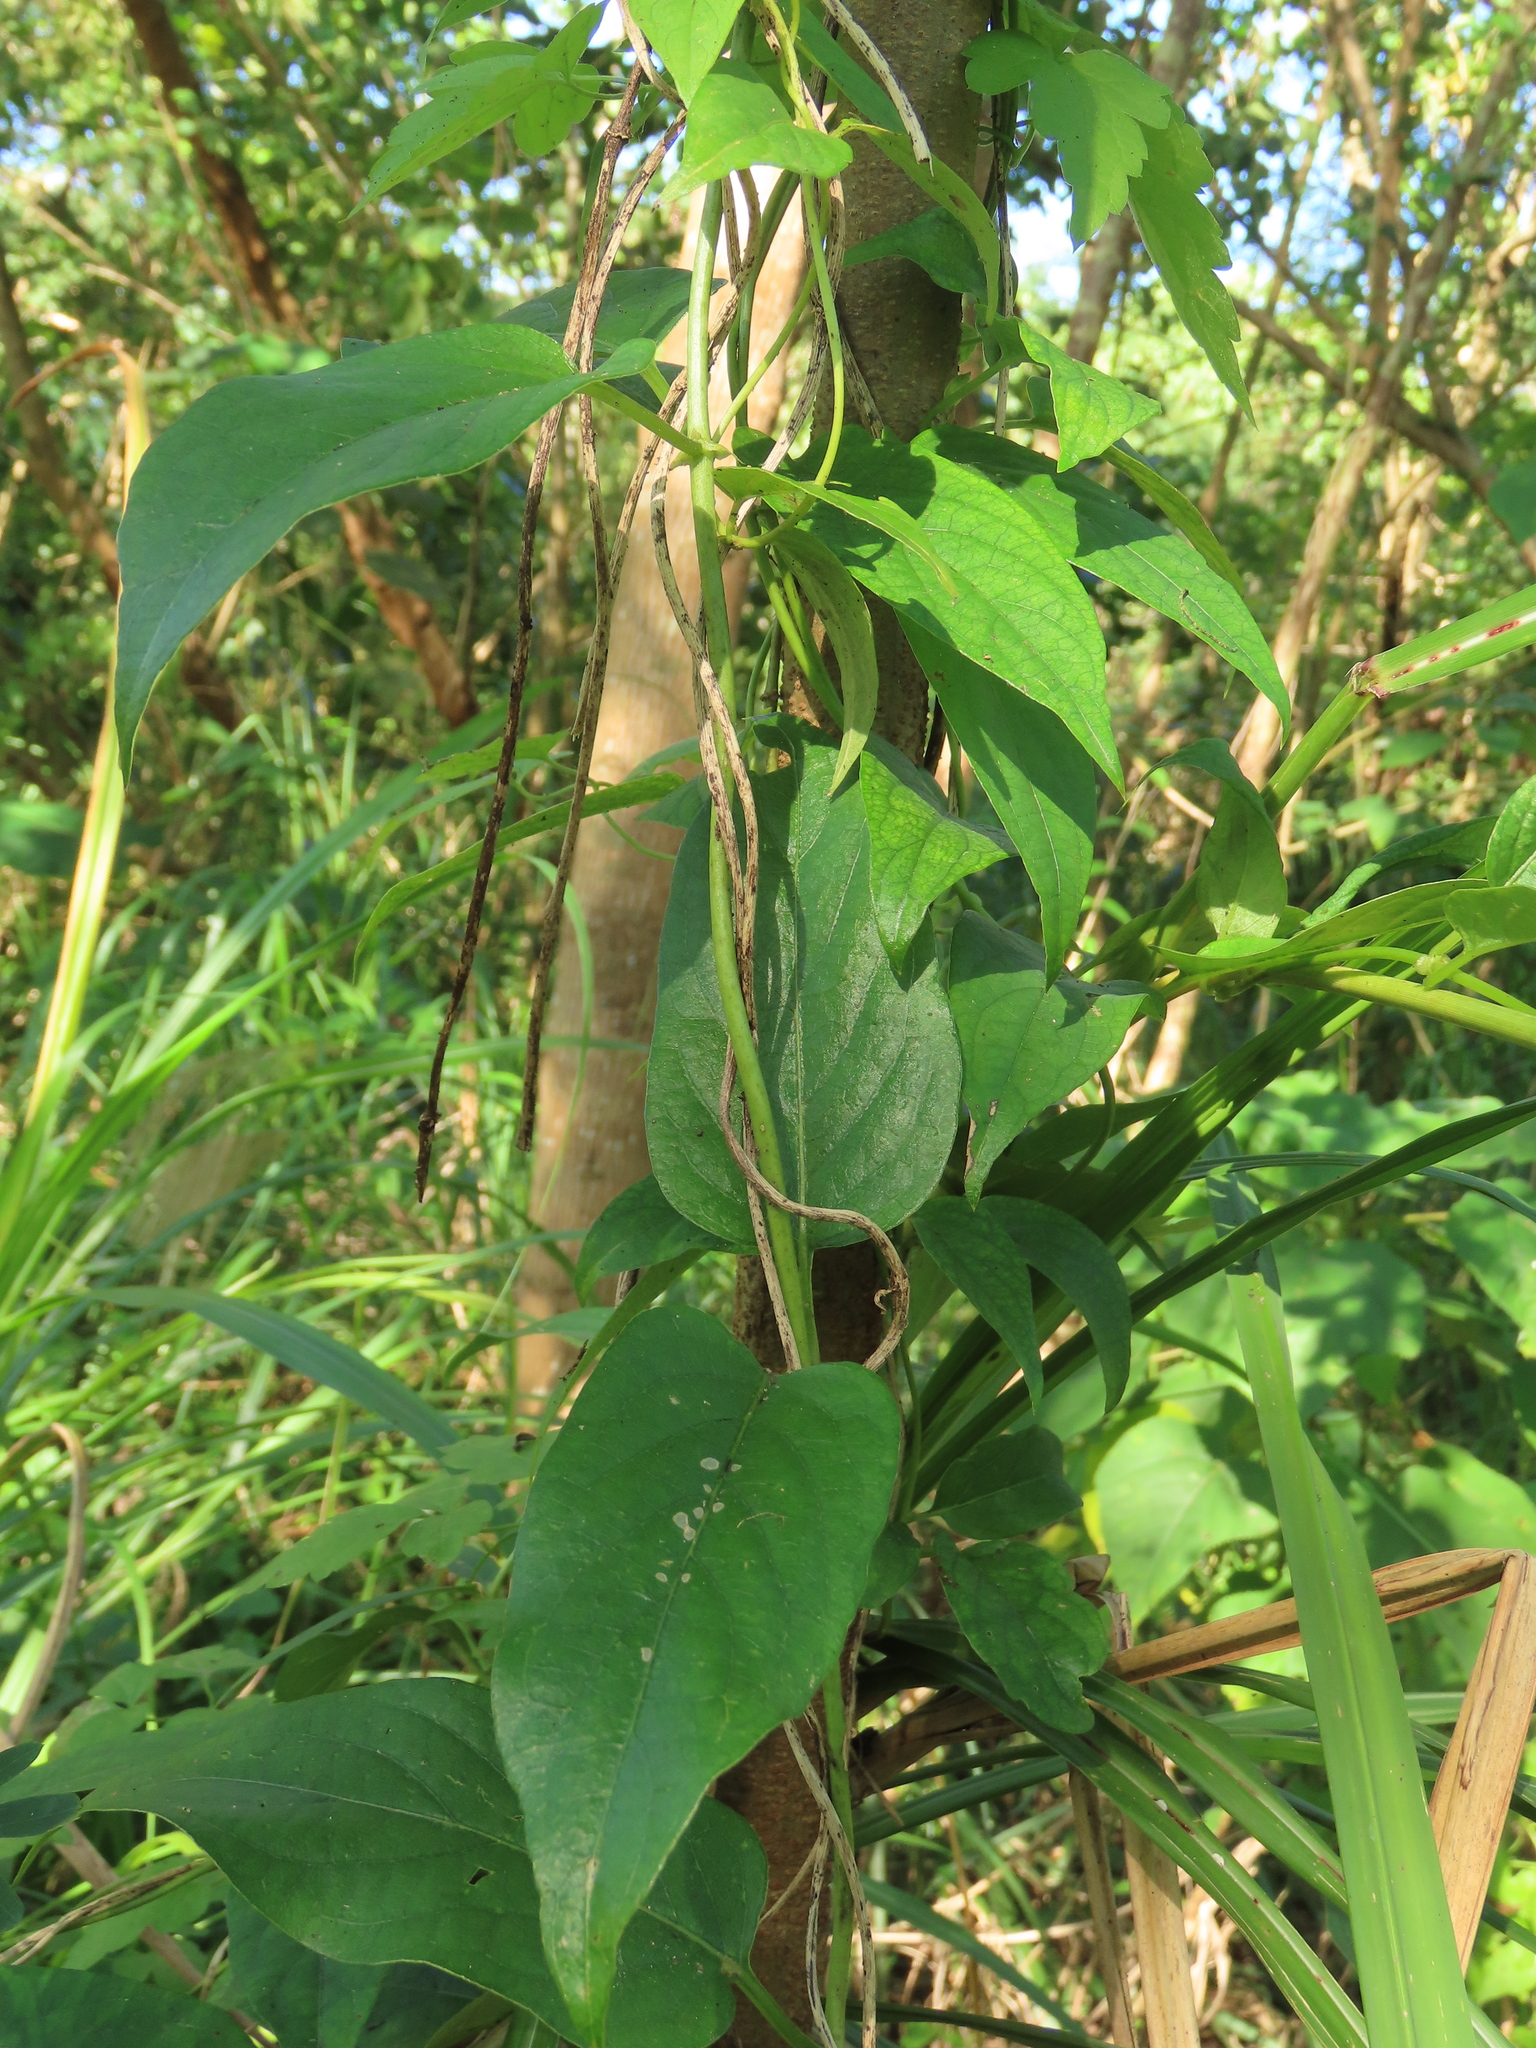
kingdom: Plantae
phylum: Tracheophyta
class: Magnoliopsida
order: Gentianales
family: Rubiaceae
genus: Paederia
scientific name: Paederia foetida
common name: Stinkvine
